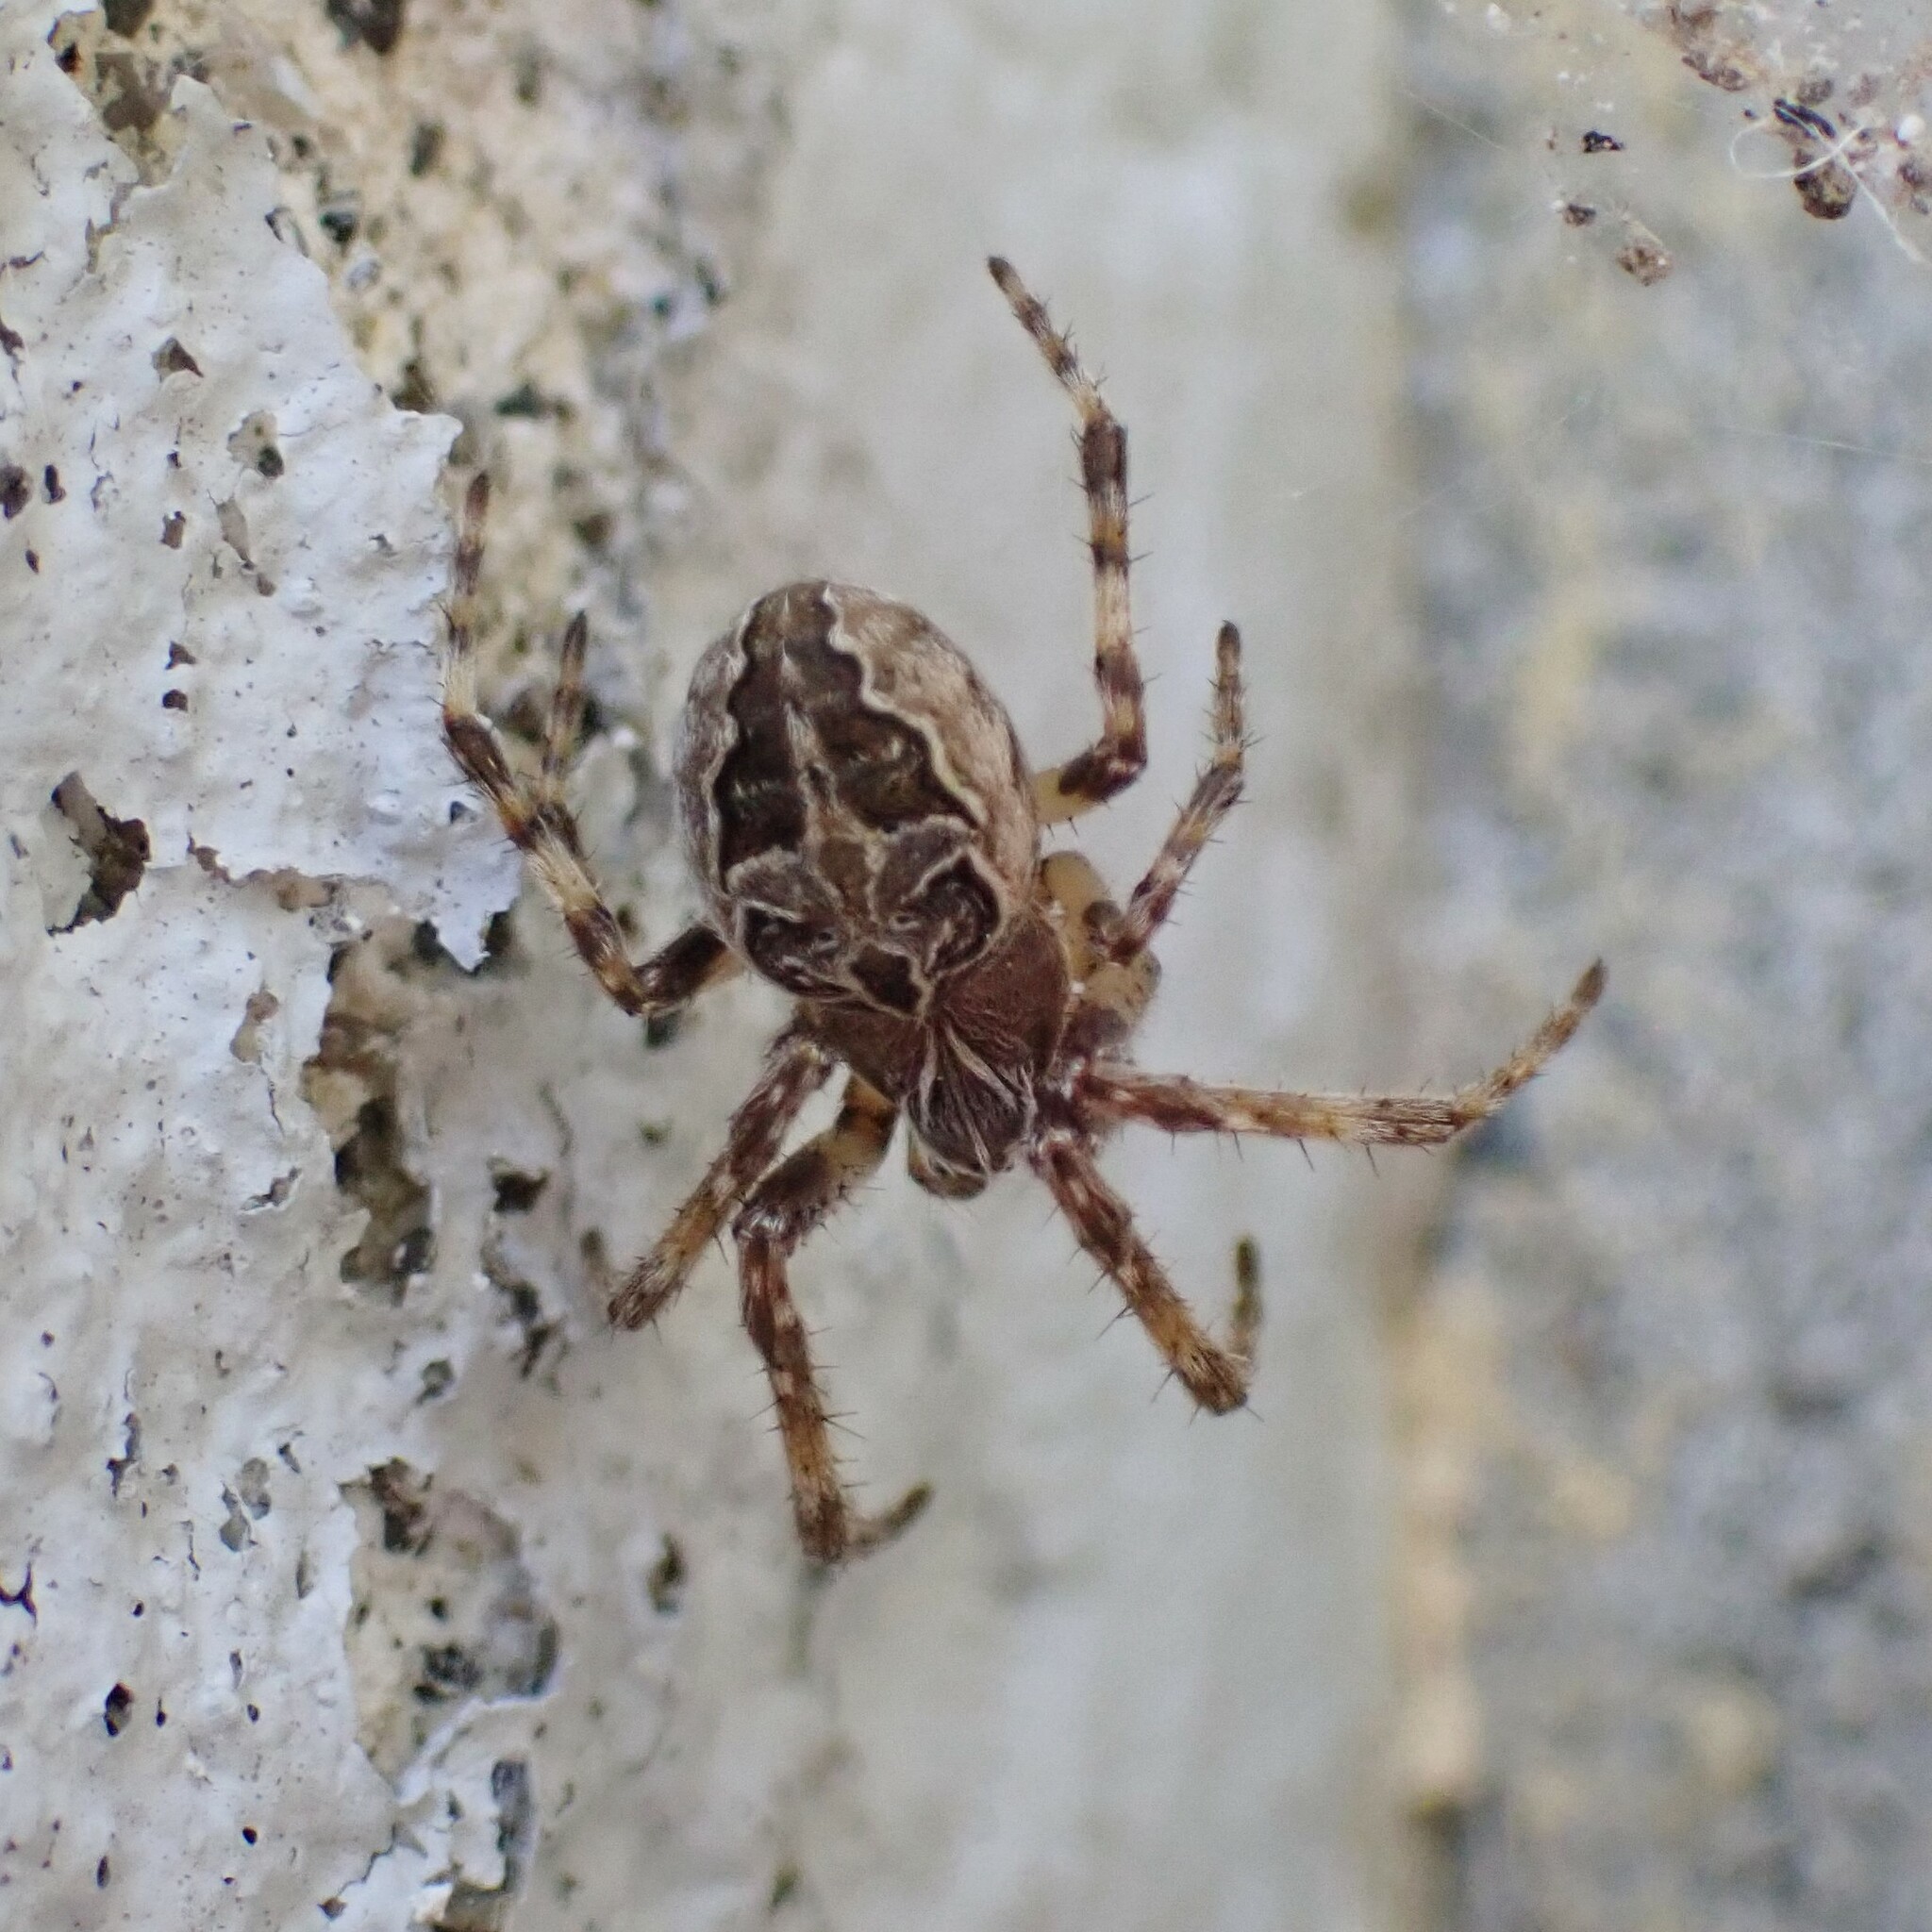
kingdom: Animalia
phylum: Arthropoda
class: Arachnida
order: Araneae
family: Araneidae
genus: Larinioides
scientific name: Larinioides sclopetarius
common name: Bridge orbweaver
